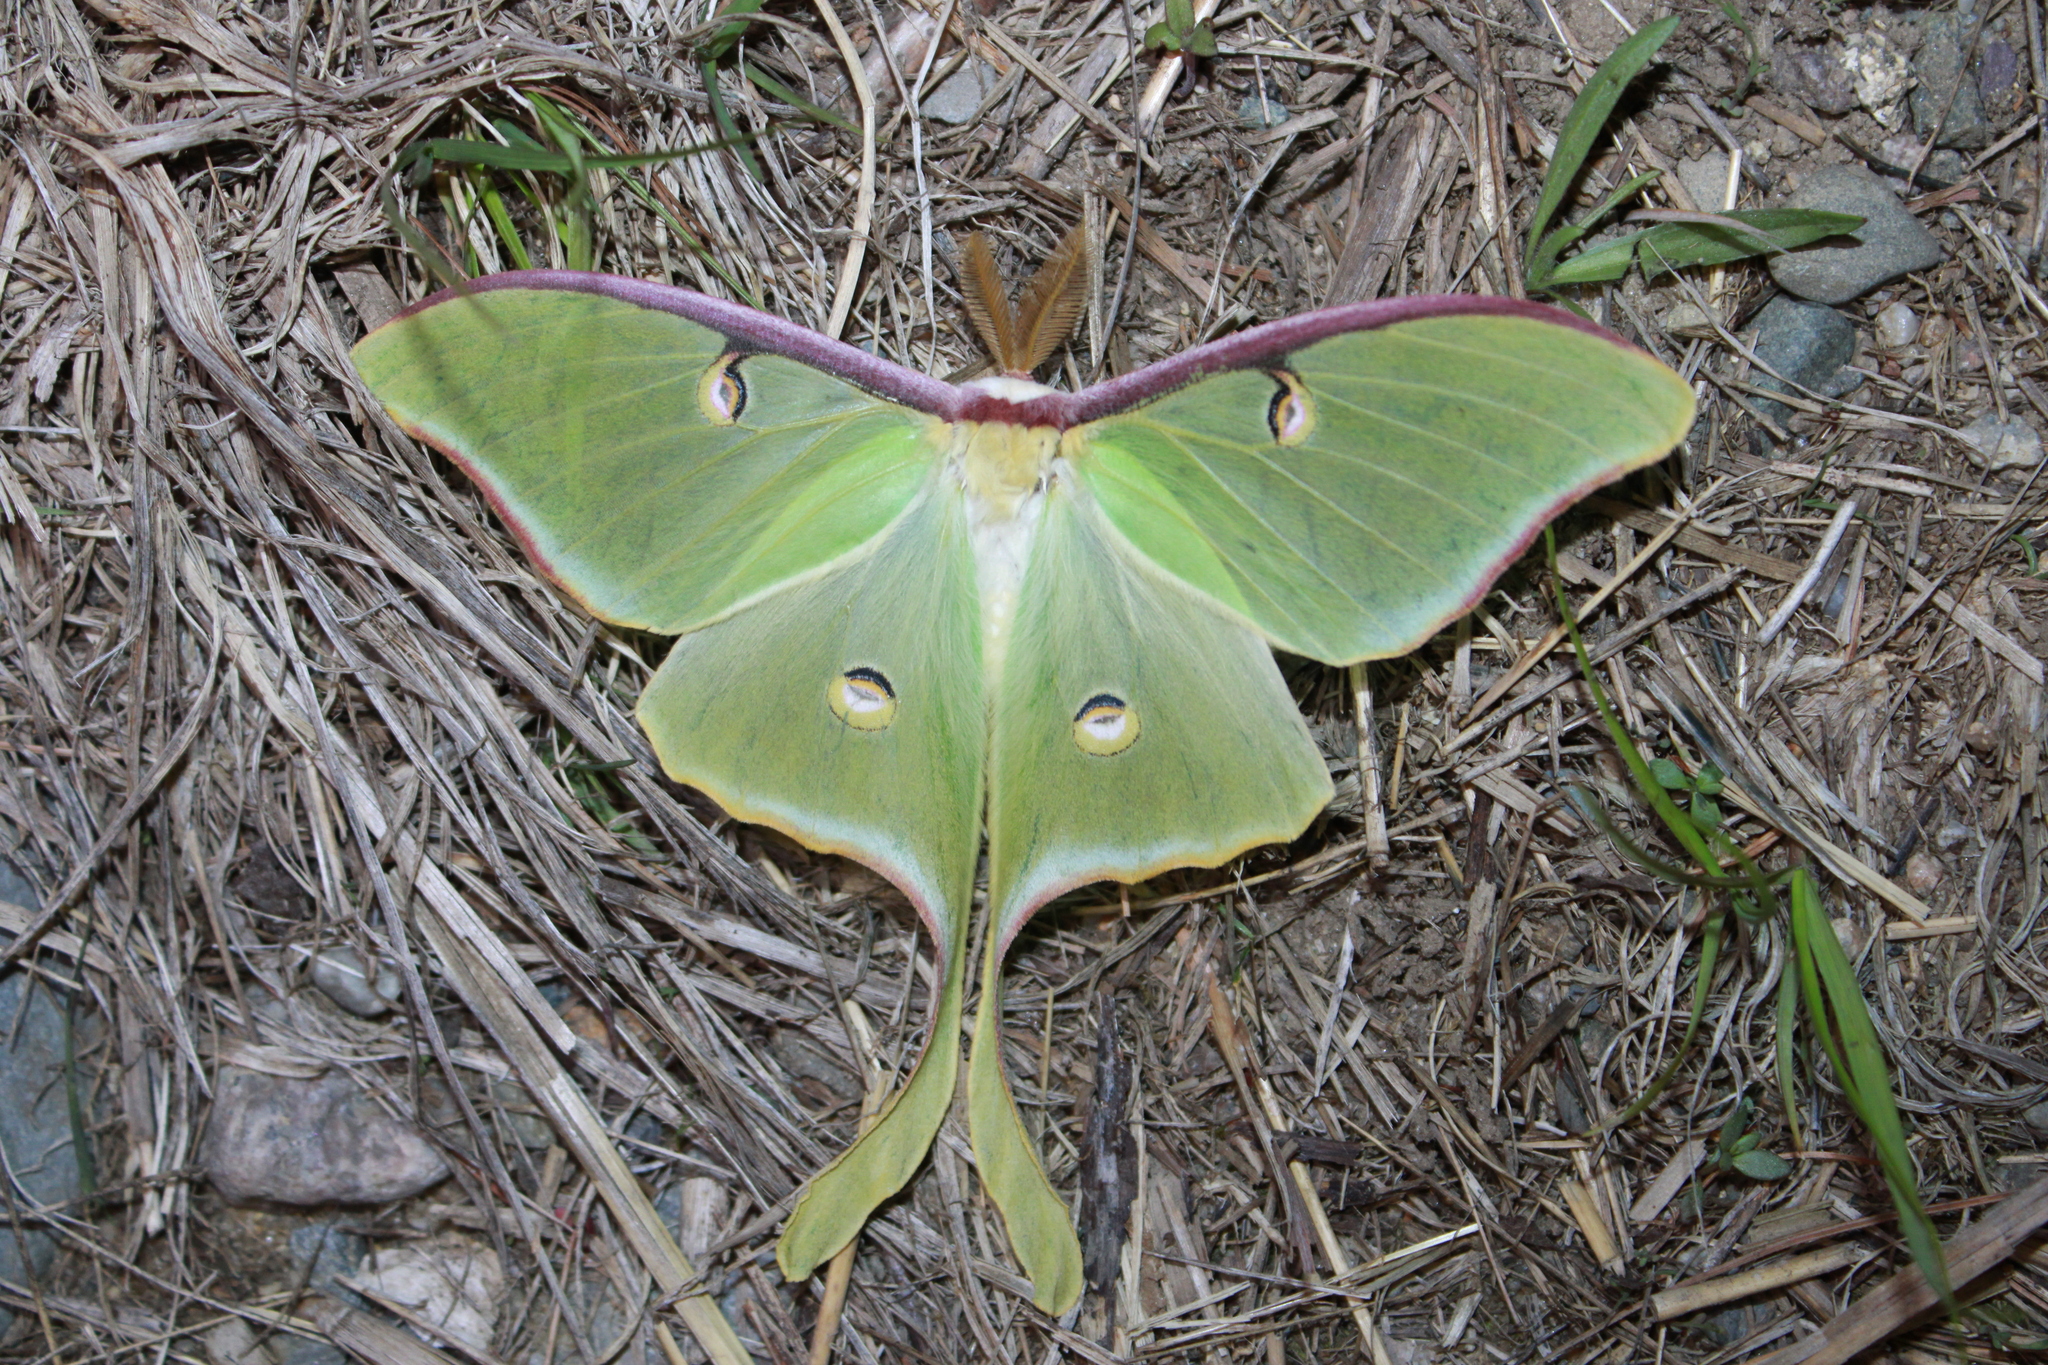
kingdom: Animalia
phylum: Arthropoda
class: Insecta
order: Lepidoptera
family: Saturniidae
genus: Actias
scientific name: Actias luna
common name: Luna moth
